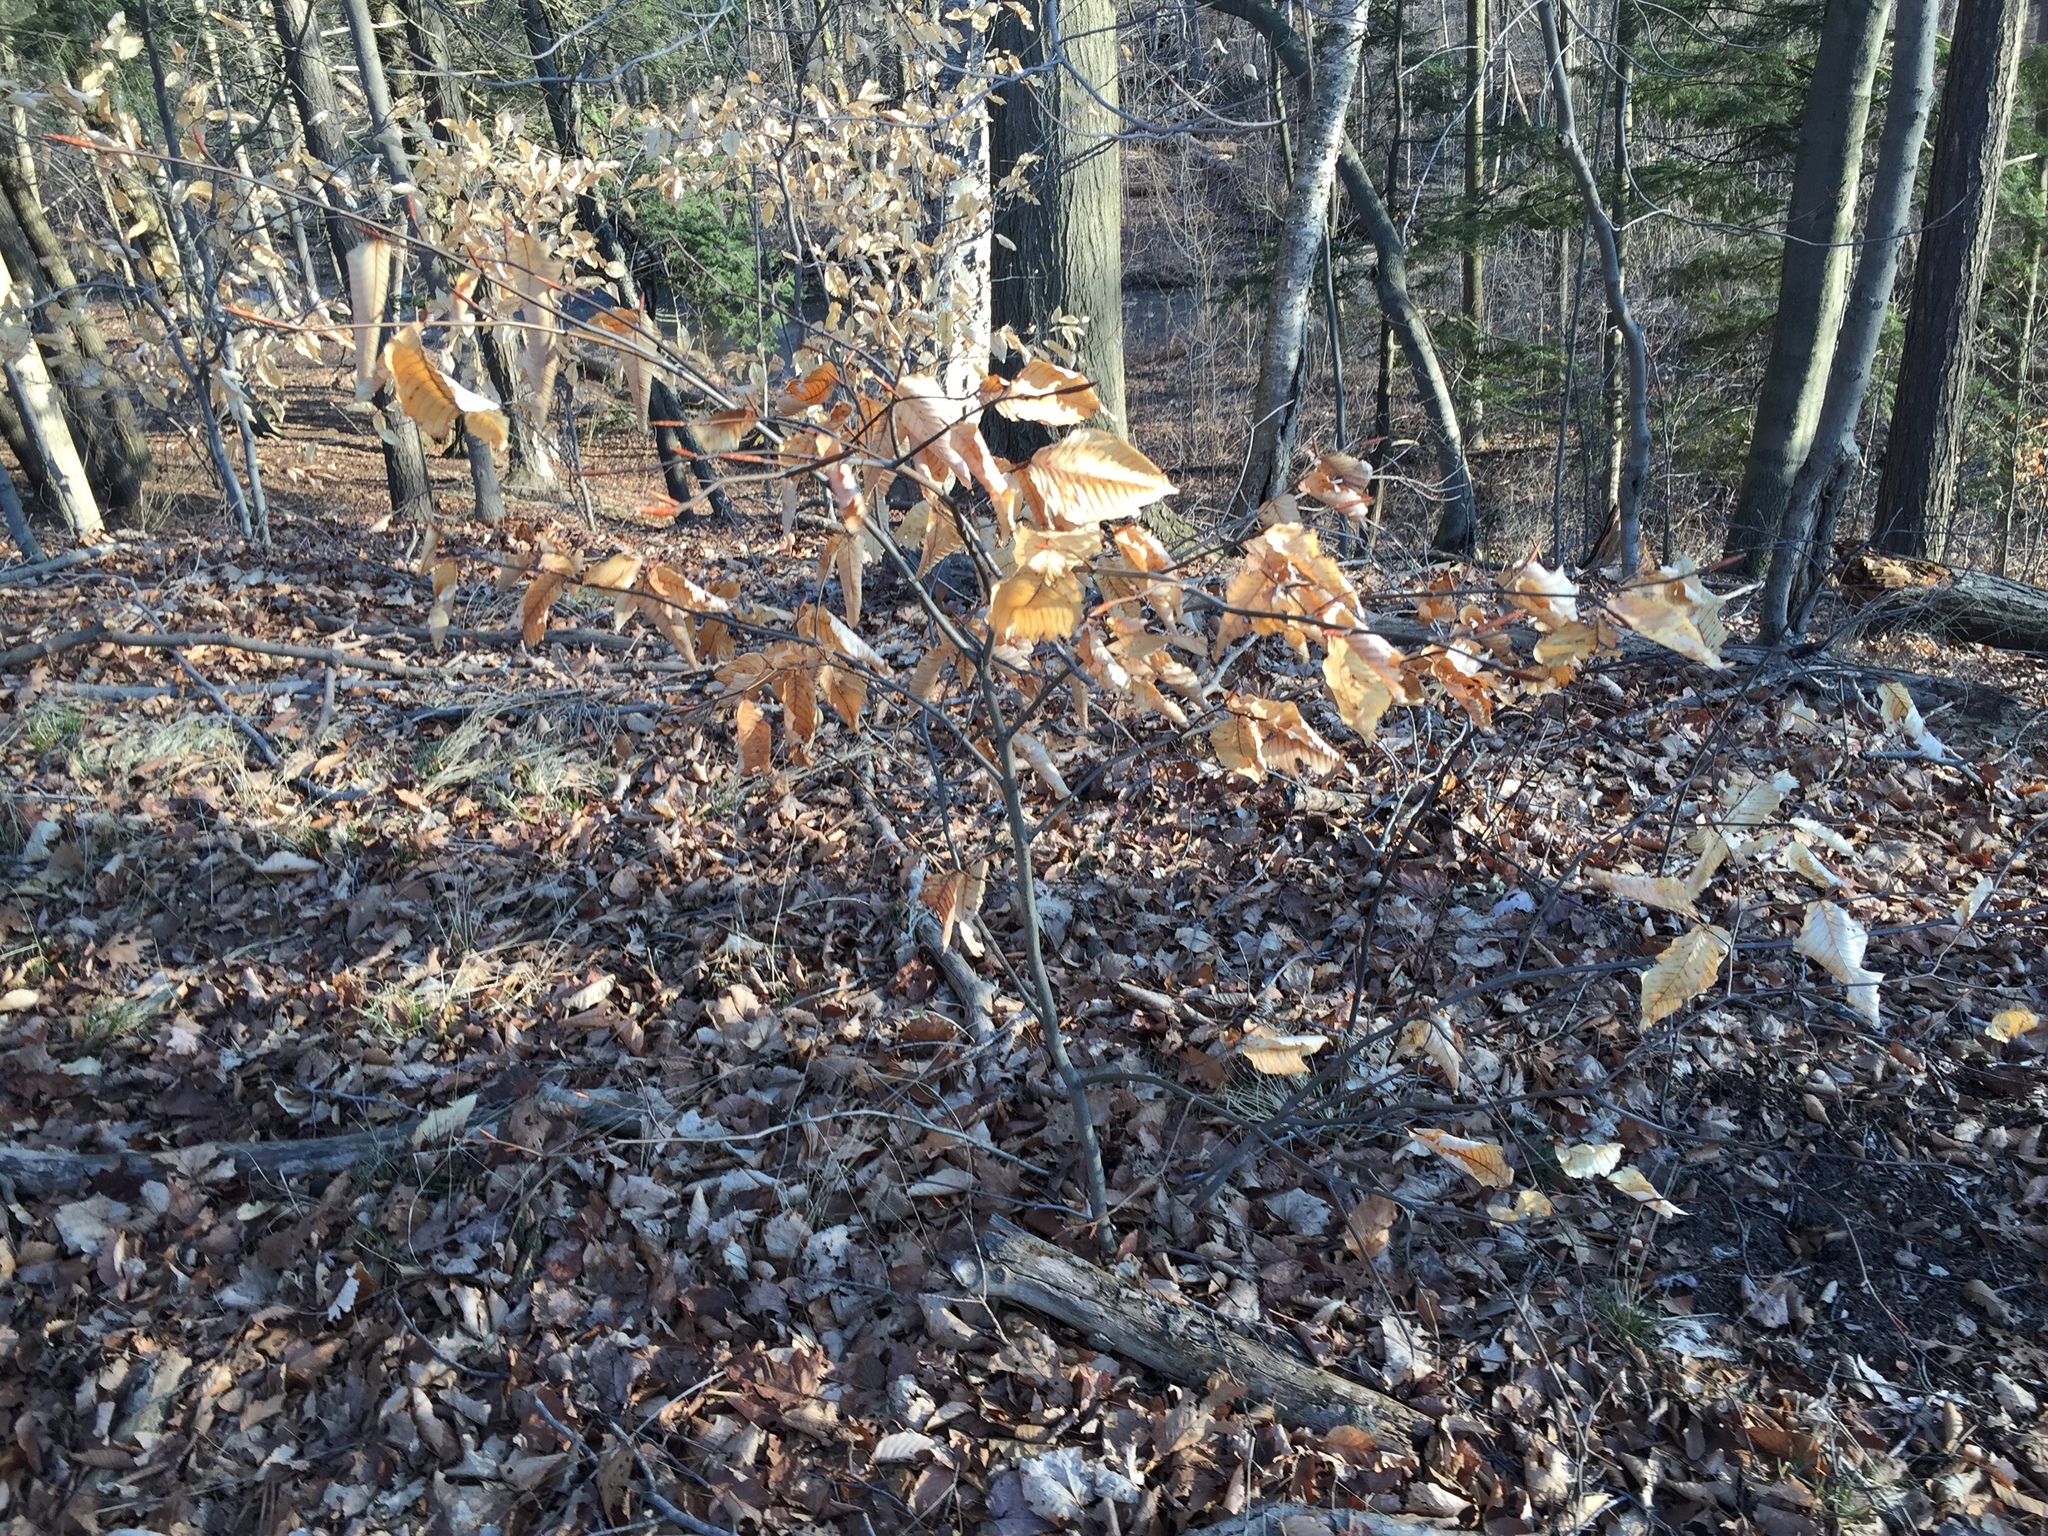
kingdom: Plantae
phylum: Tracheophyta
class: Magnoliopsida
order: Fagales
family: Fagaceae
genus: Fagus
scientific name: Fagus grandifolia
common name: American beech
